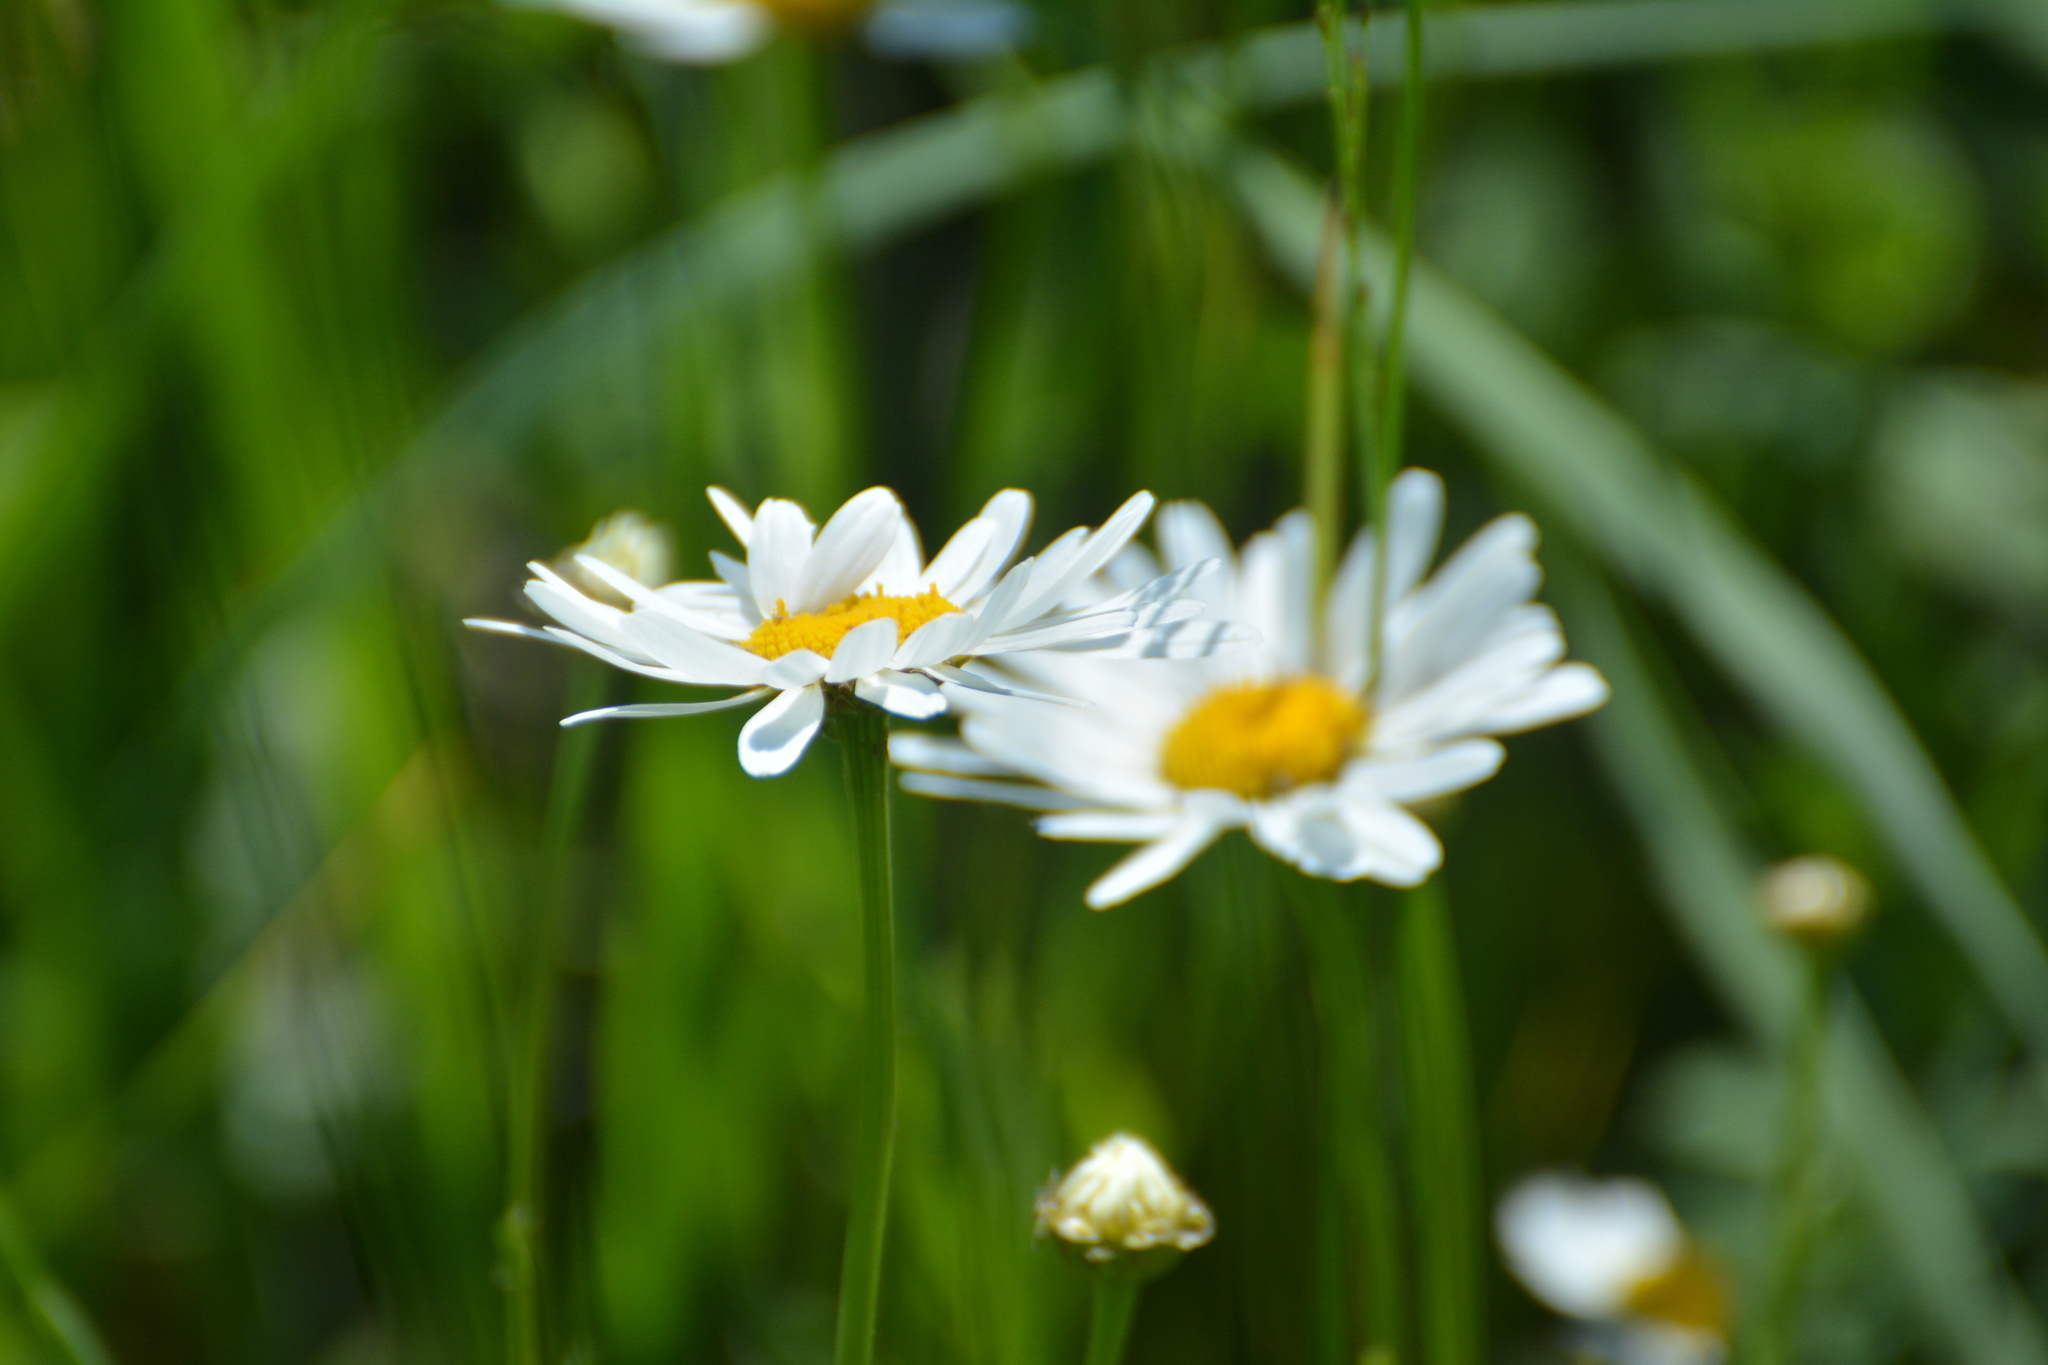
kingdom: Plantae
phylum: Tracheophyta
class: Magnoliopsida
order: Asterales
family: Asteraceae
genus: Leucanthemum
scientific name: Leucanthemum vulgare
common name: Oxeye daisy
